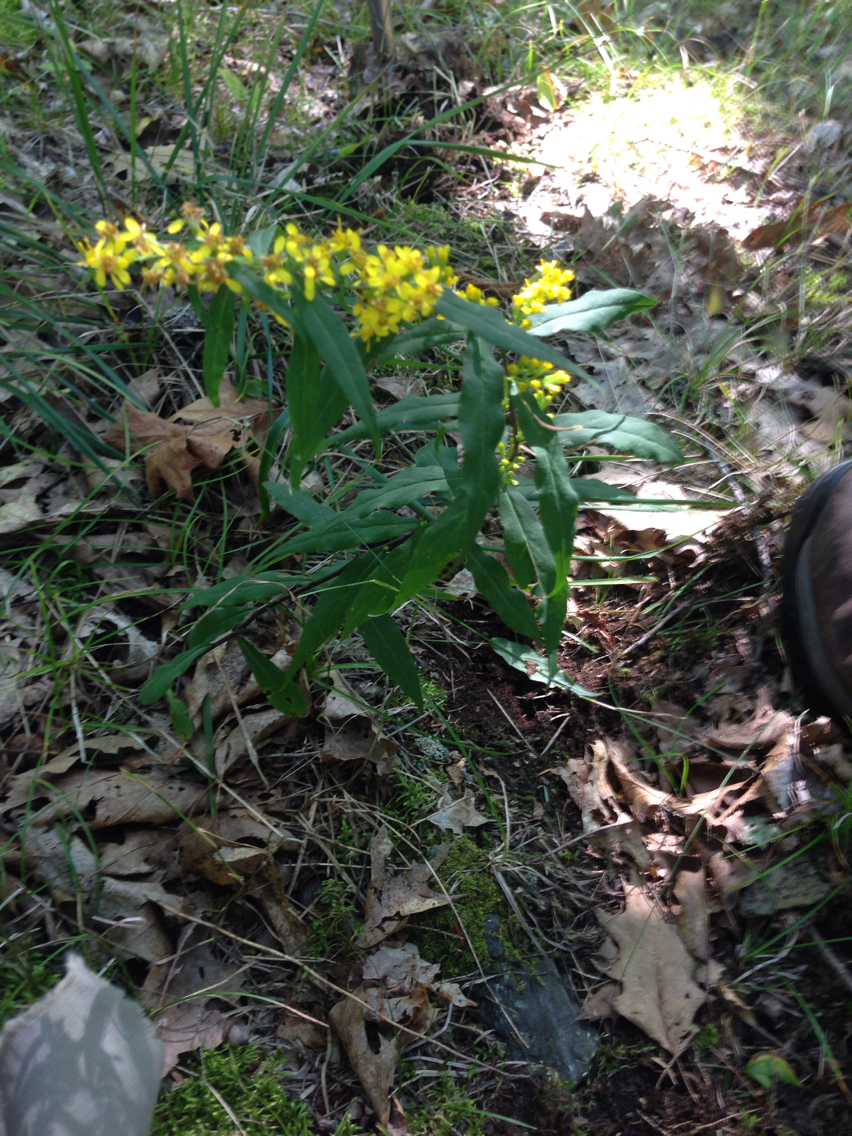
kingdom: Plantae
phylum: Tracheophyta
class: Magnoliopsida
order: Asterales
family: Asteraceae
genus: Solidago
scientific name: Solidago caesia
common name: Woodland goldenrod
